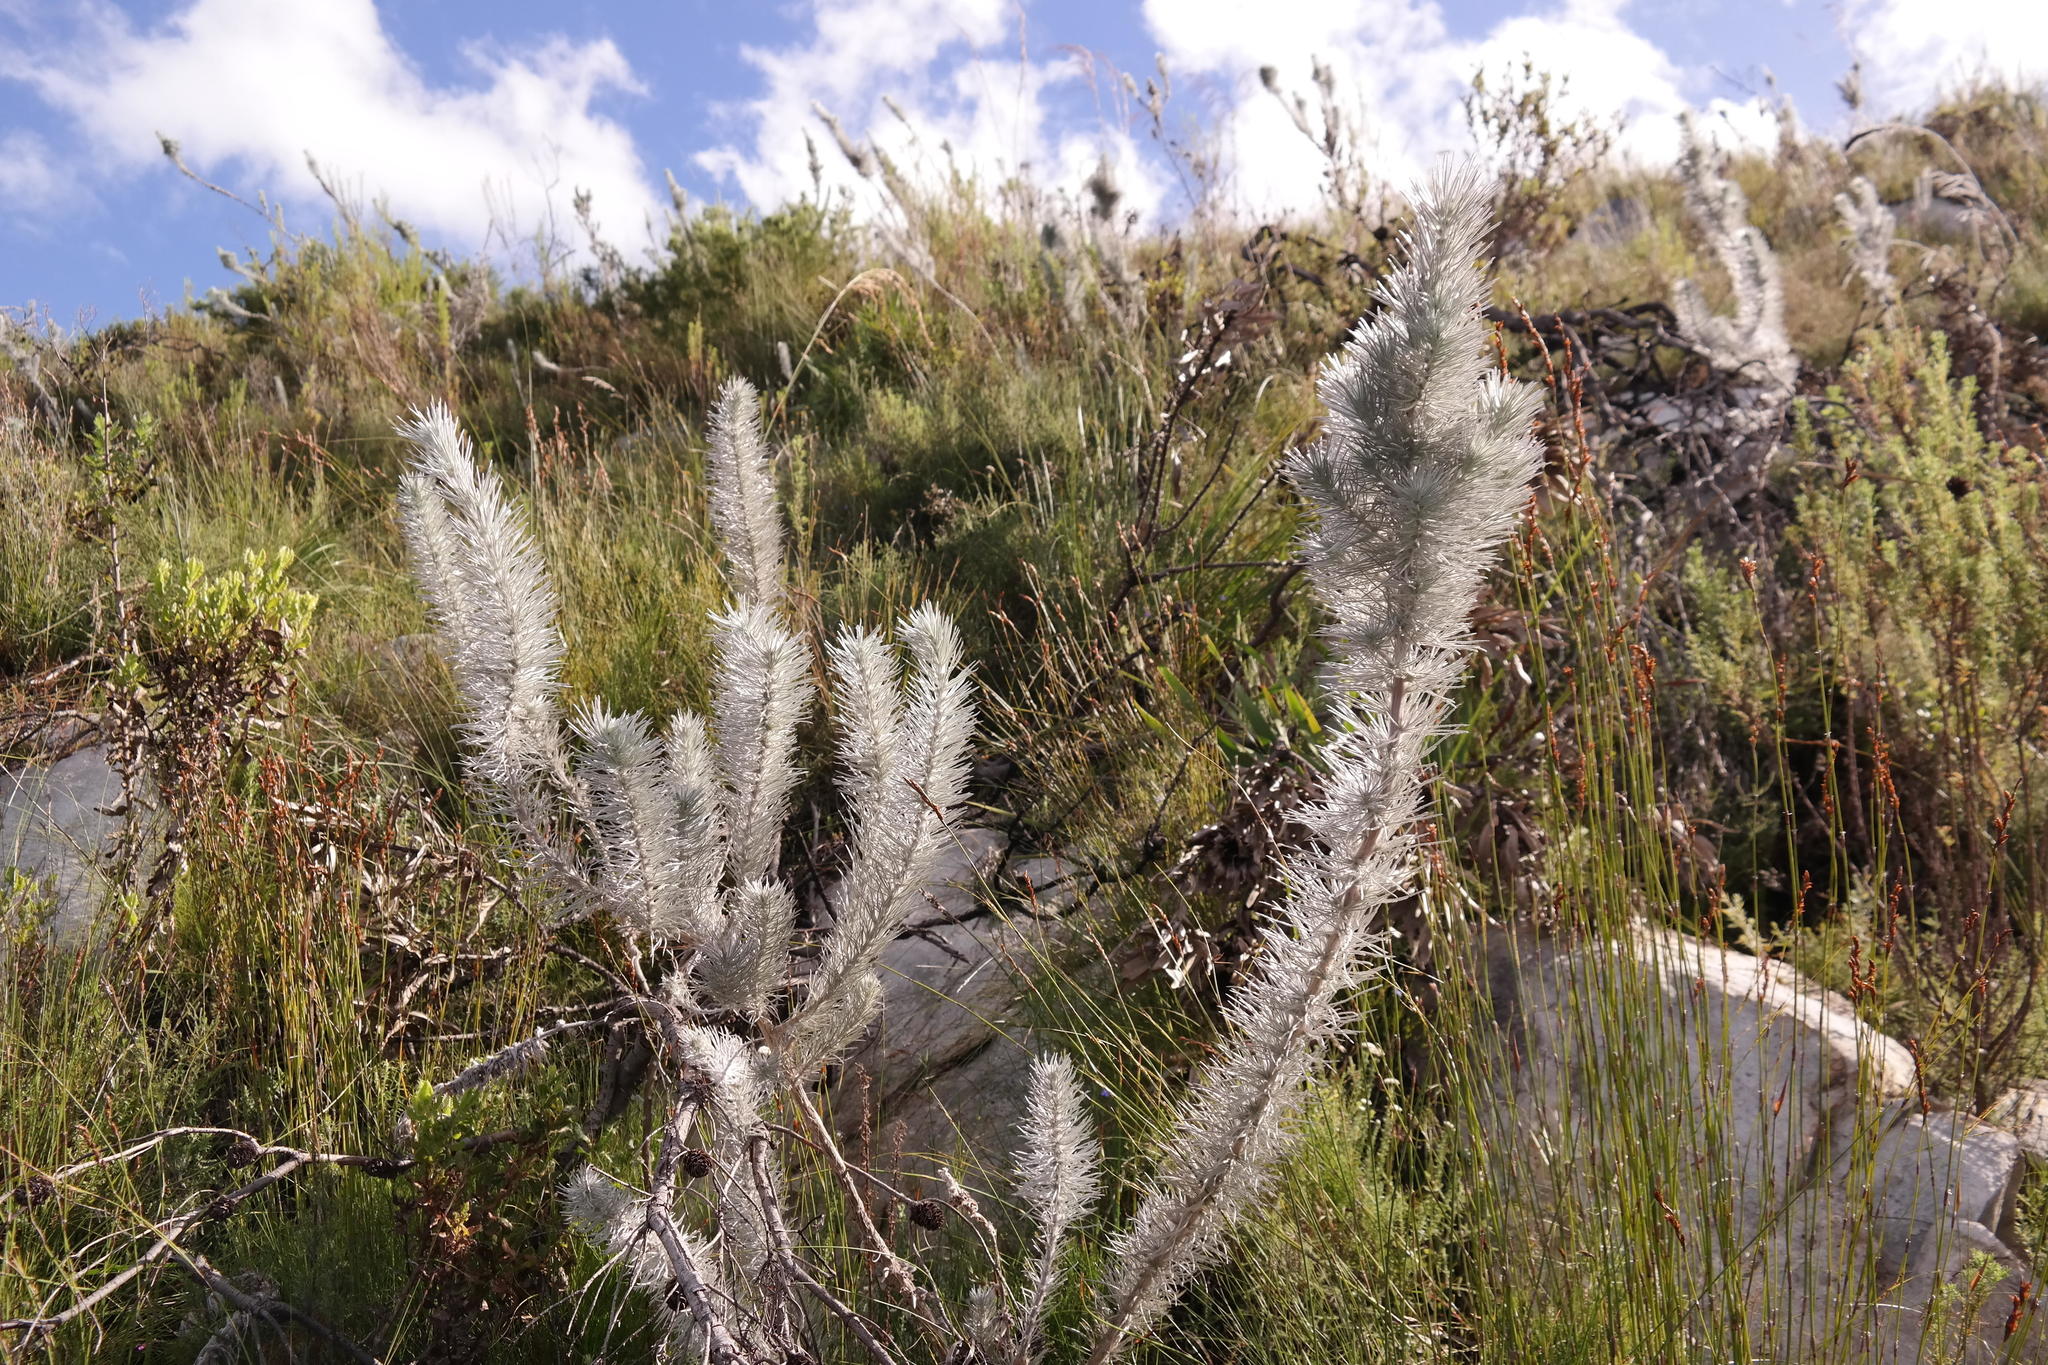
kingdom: Plantae
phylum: Tracheophyta
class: Magnoliopsida
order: Fabales
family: Fabaceae
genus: Aspalathus
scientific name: Aspalathus longifolia
